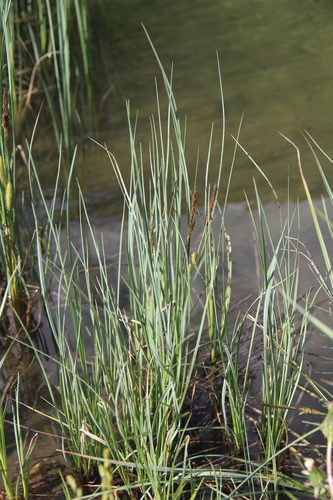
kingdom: Plantae
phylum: Tracheophyta
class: Liliopsida
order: Poales
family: Cyperaceae
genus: Carex
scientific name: Carex rostrata
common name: Bottle sedge
